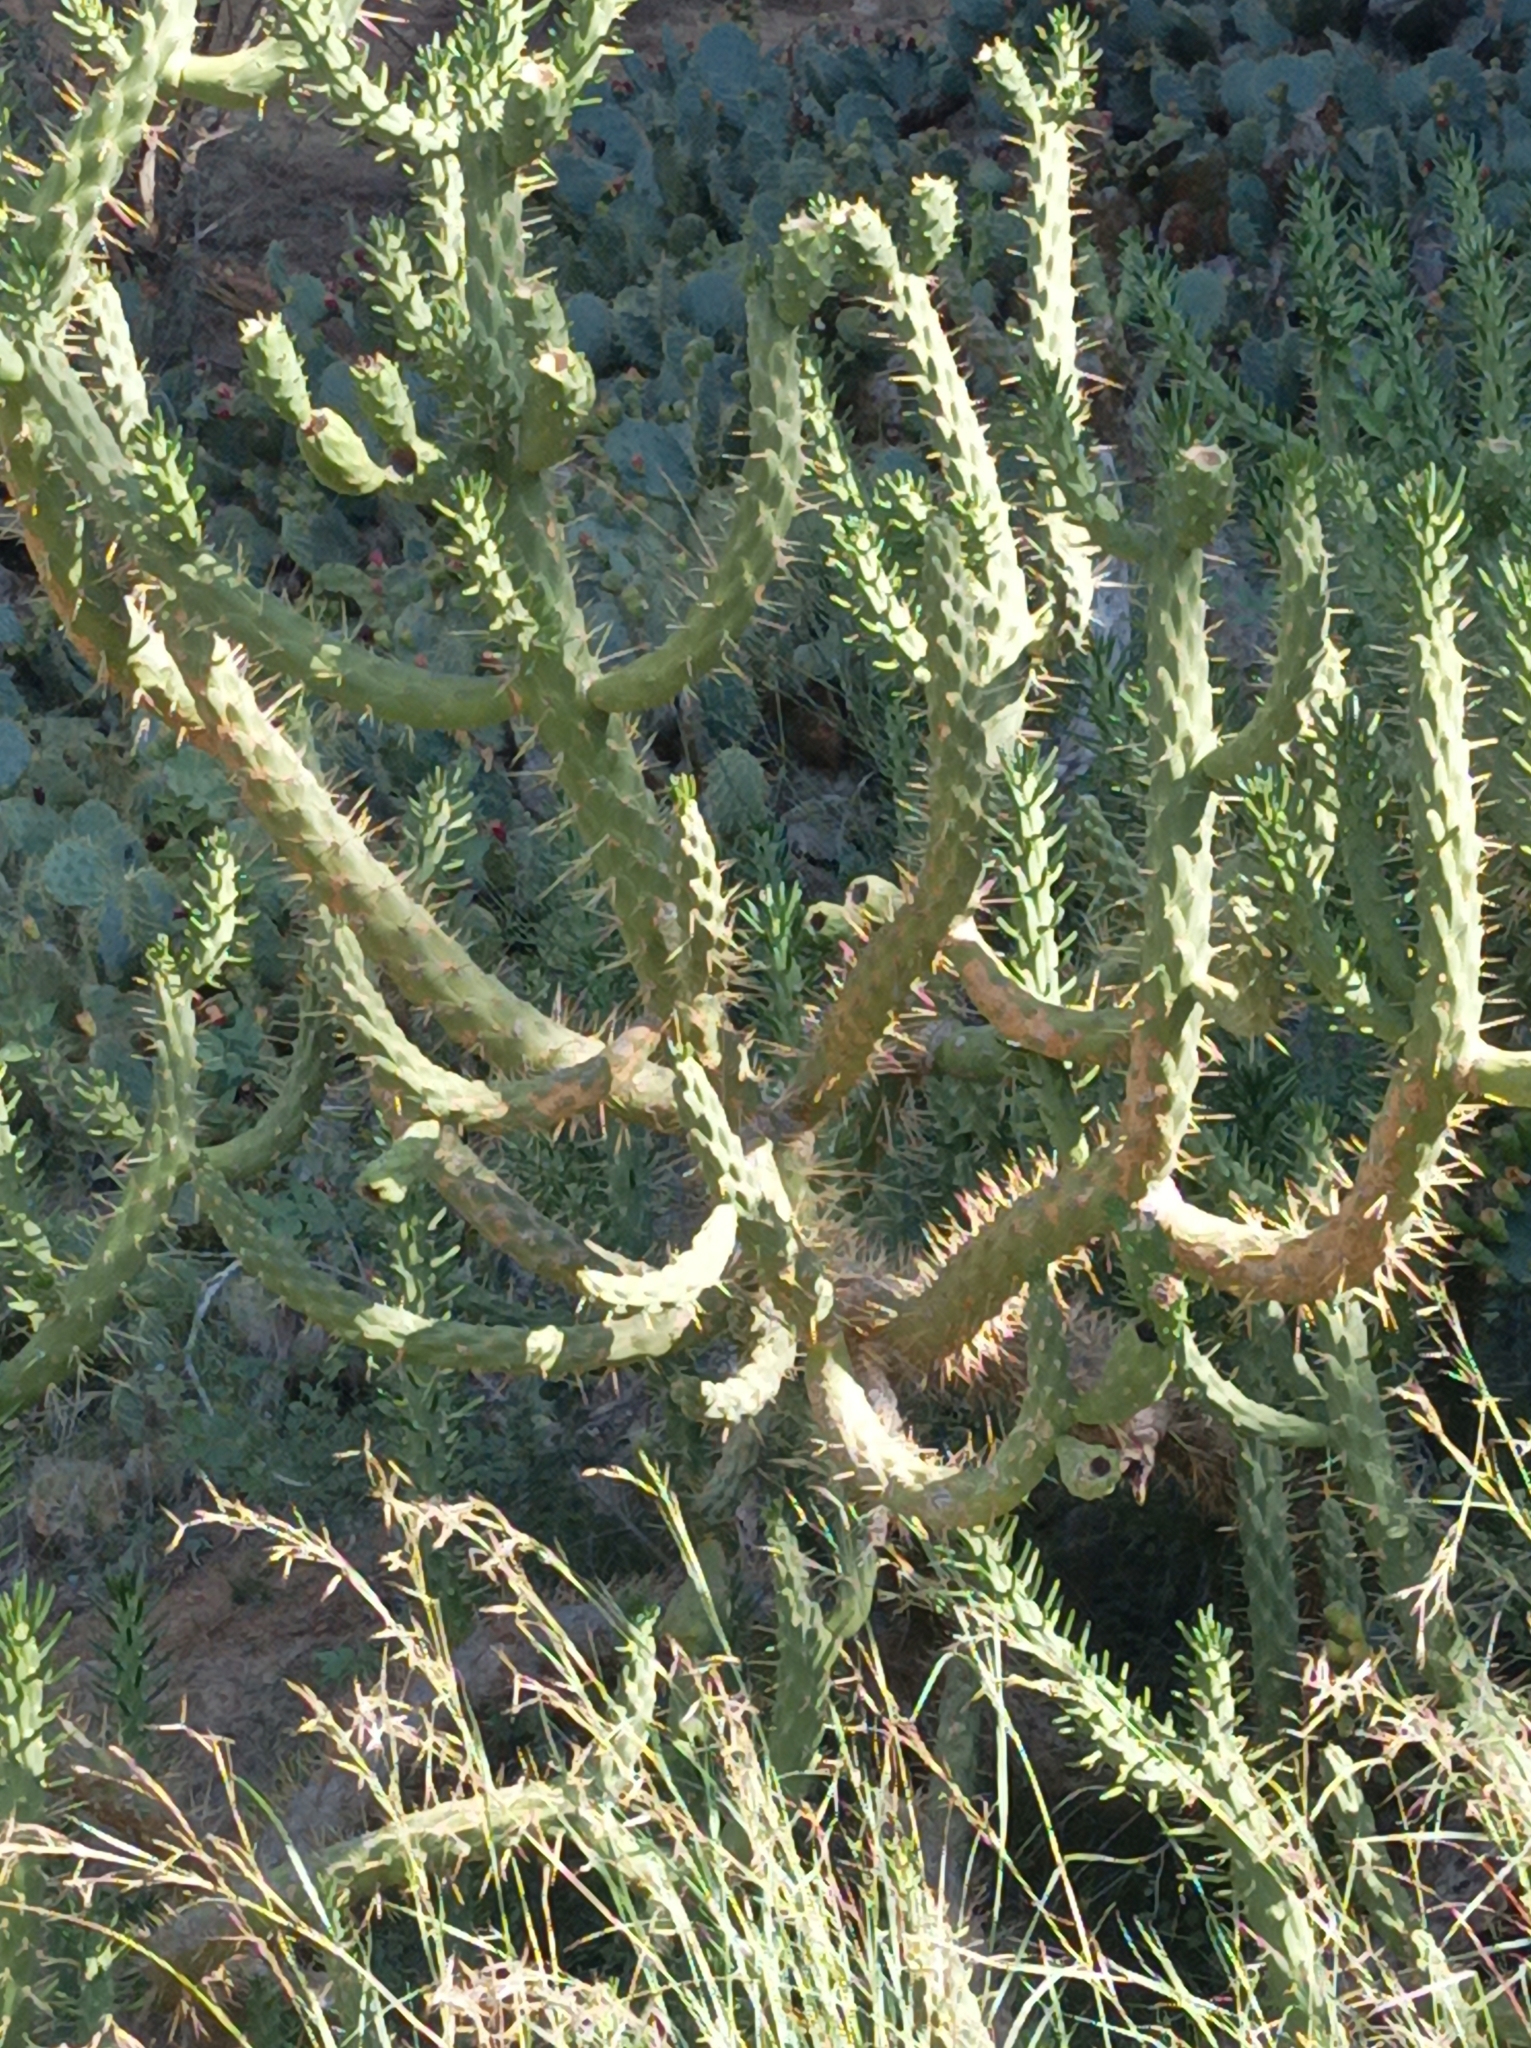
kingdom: Plantae
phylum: Tracheophyta
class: Magnoliopsida
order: Caryophyllales
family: Cactaceae
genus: Austrocylindropuntia
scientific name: Austrocylindropuntia subulata
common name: Eve's needle cactus
